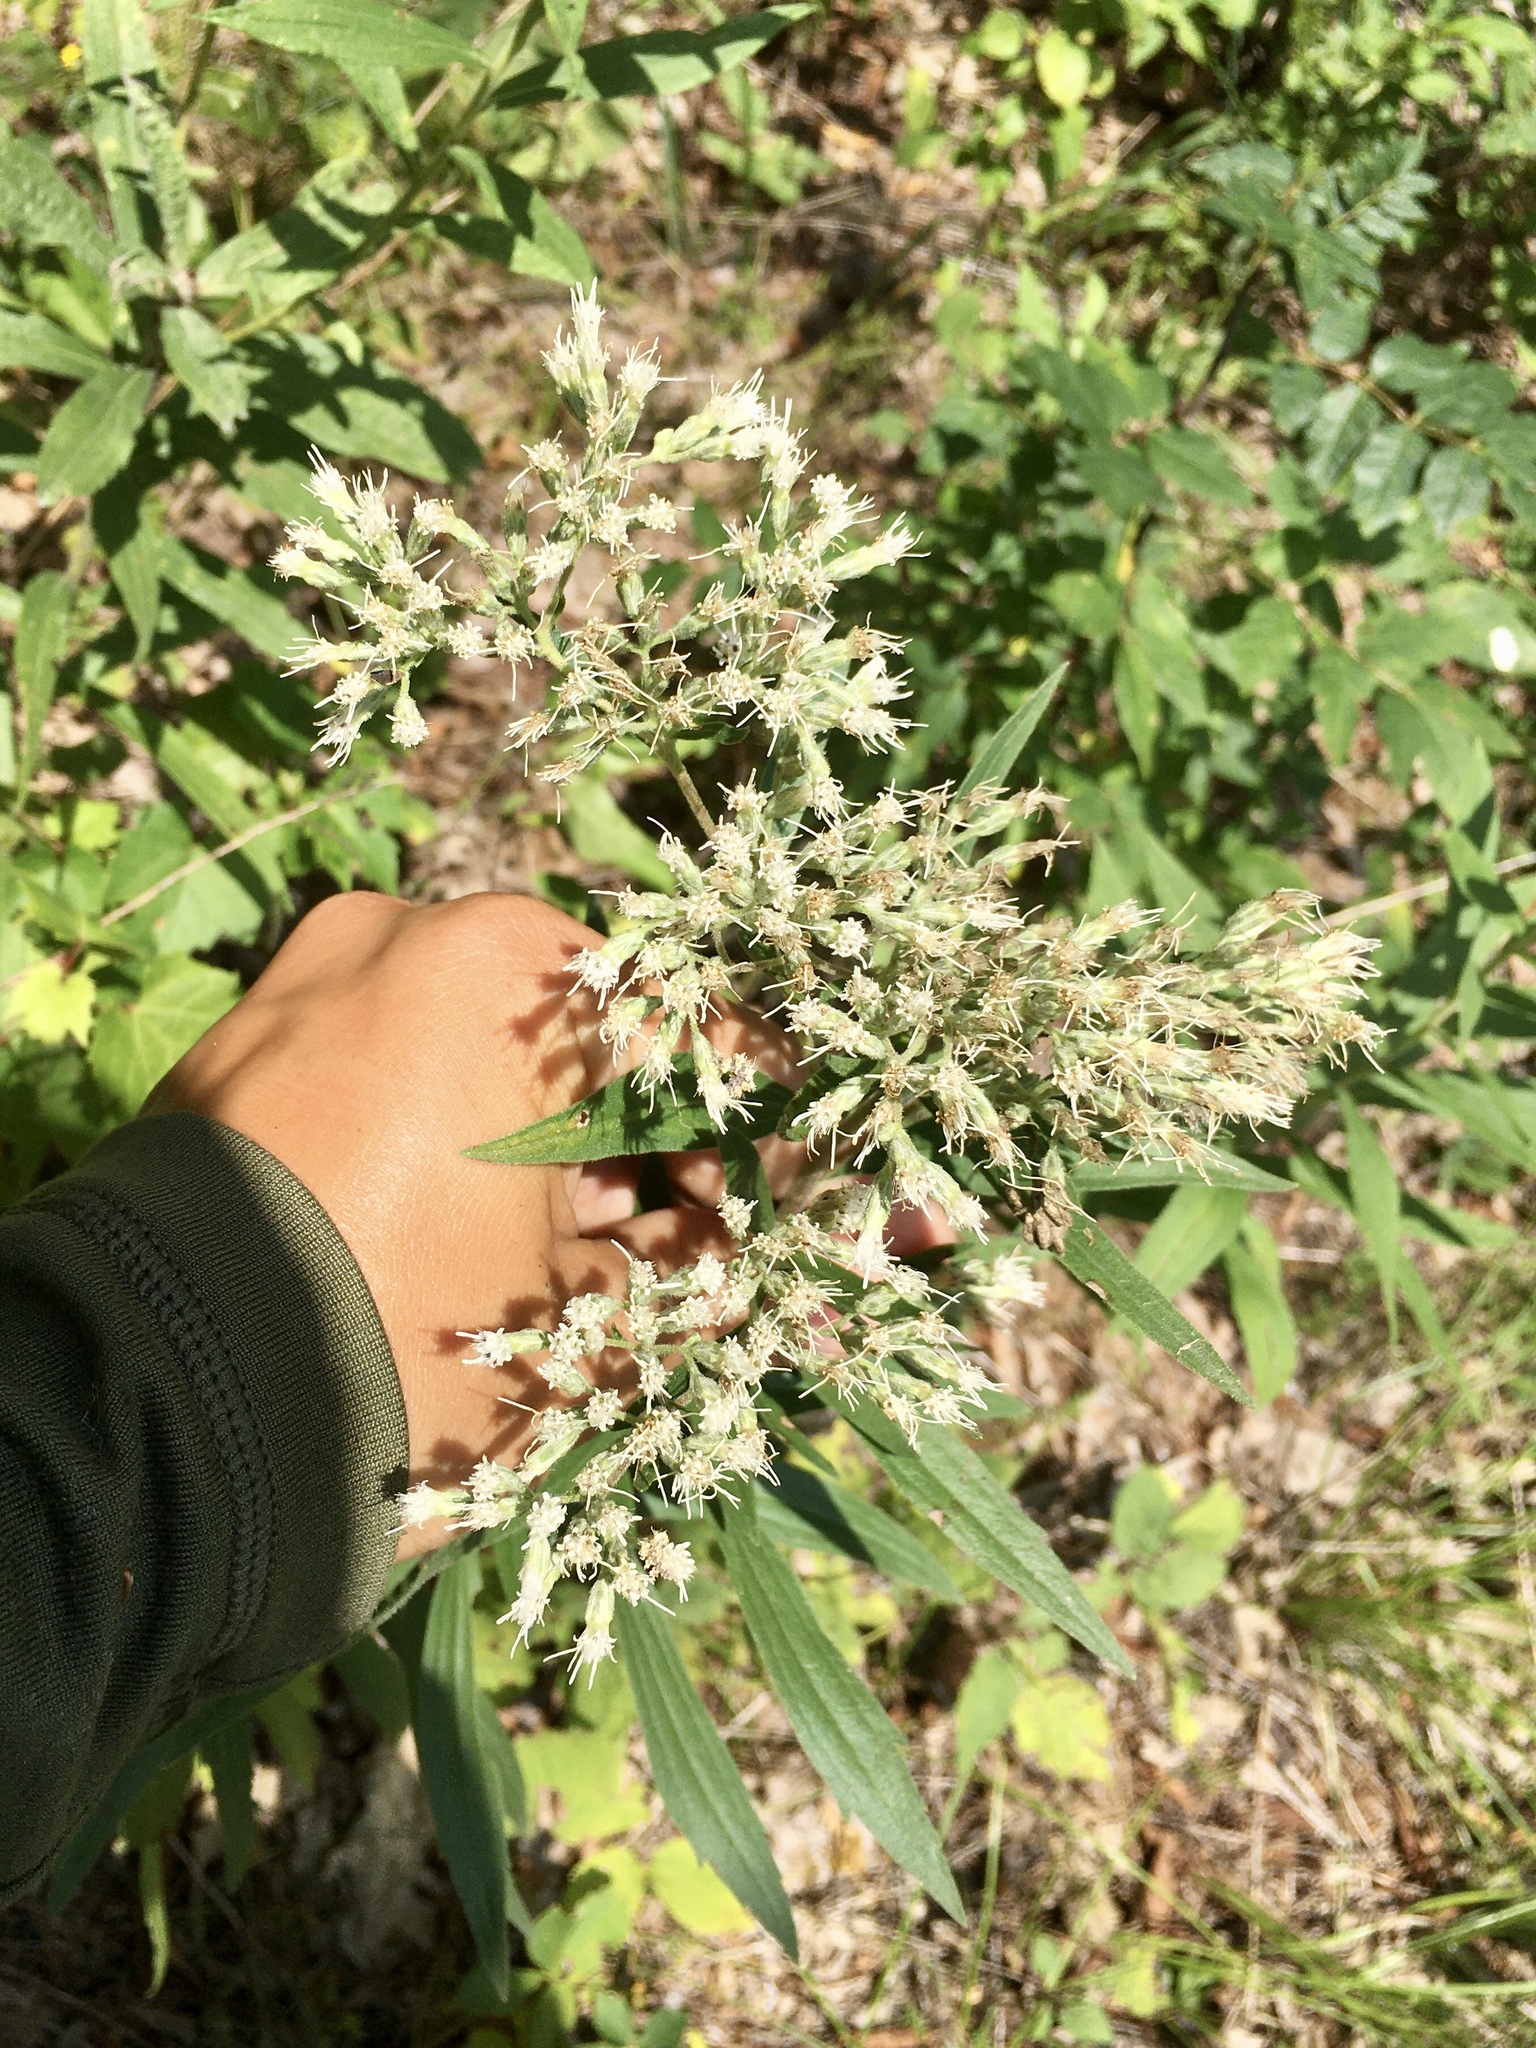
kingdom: Plantae
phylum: Tracheophyta
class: Magnoliopsida
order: Asterales
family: Asteraceae
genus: Eupatorium
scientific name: Eupatorium altissimum
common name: Tall thoroughwort
